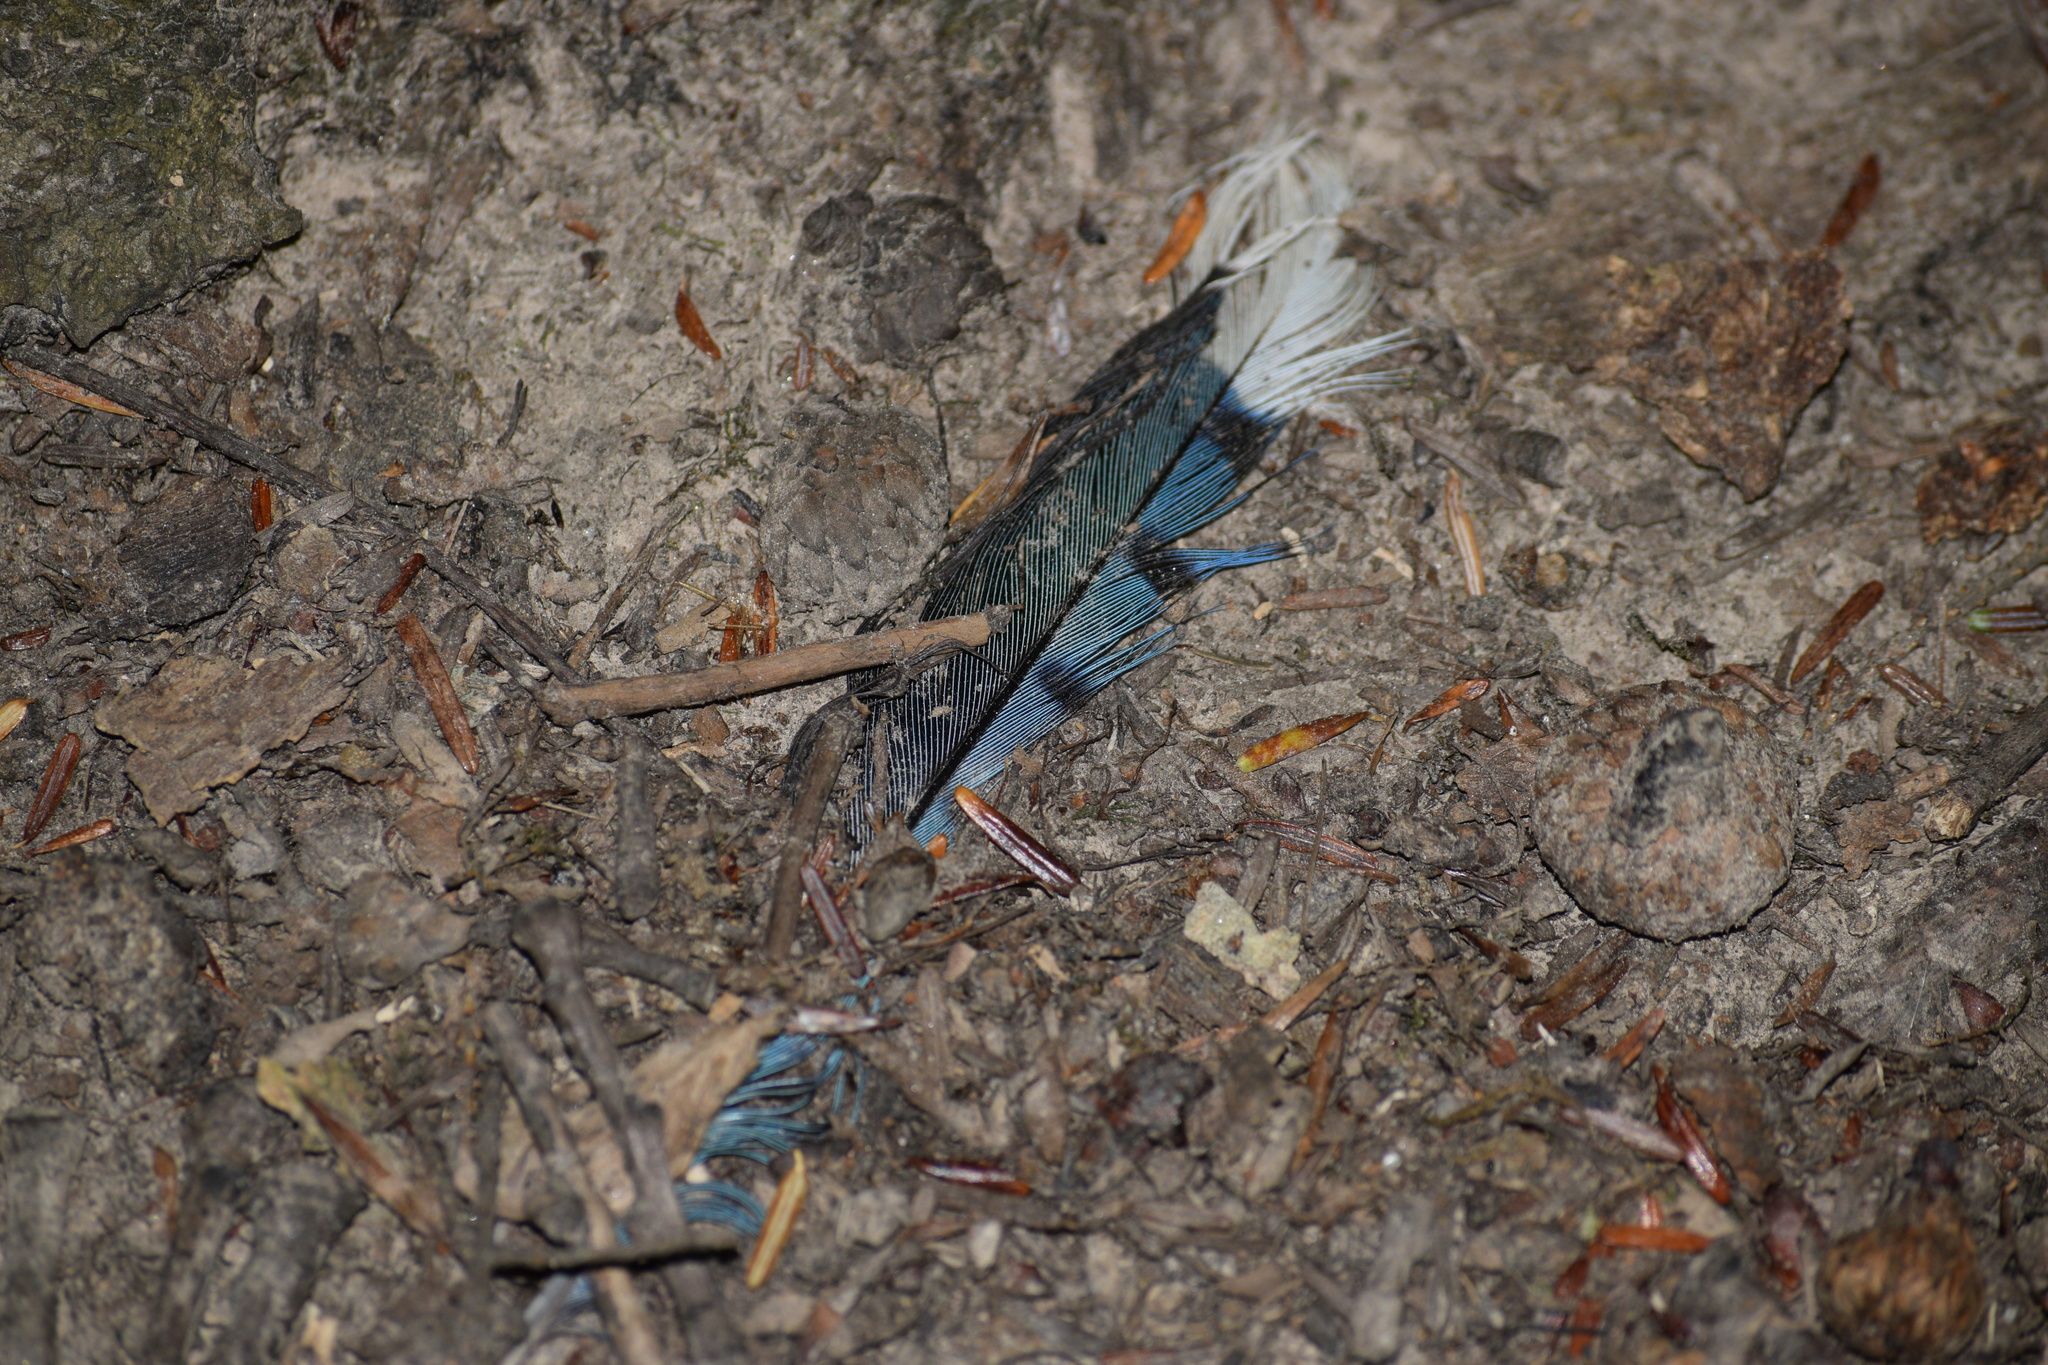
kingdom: Animalia
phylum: Chordata
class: Aves
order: Passeriformes
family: Corvidae
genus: Cyanocitta
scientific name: Cyanocitta cristata
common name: Blue jay
